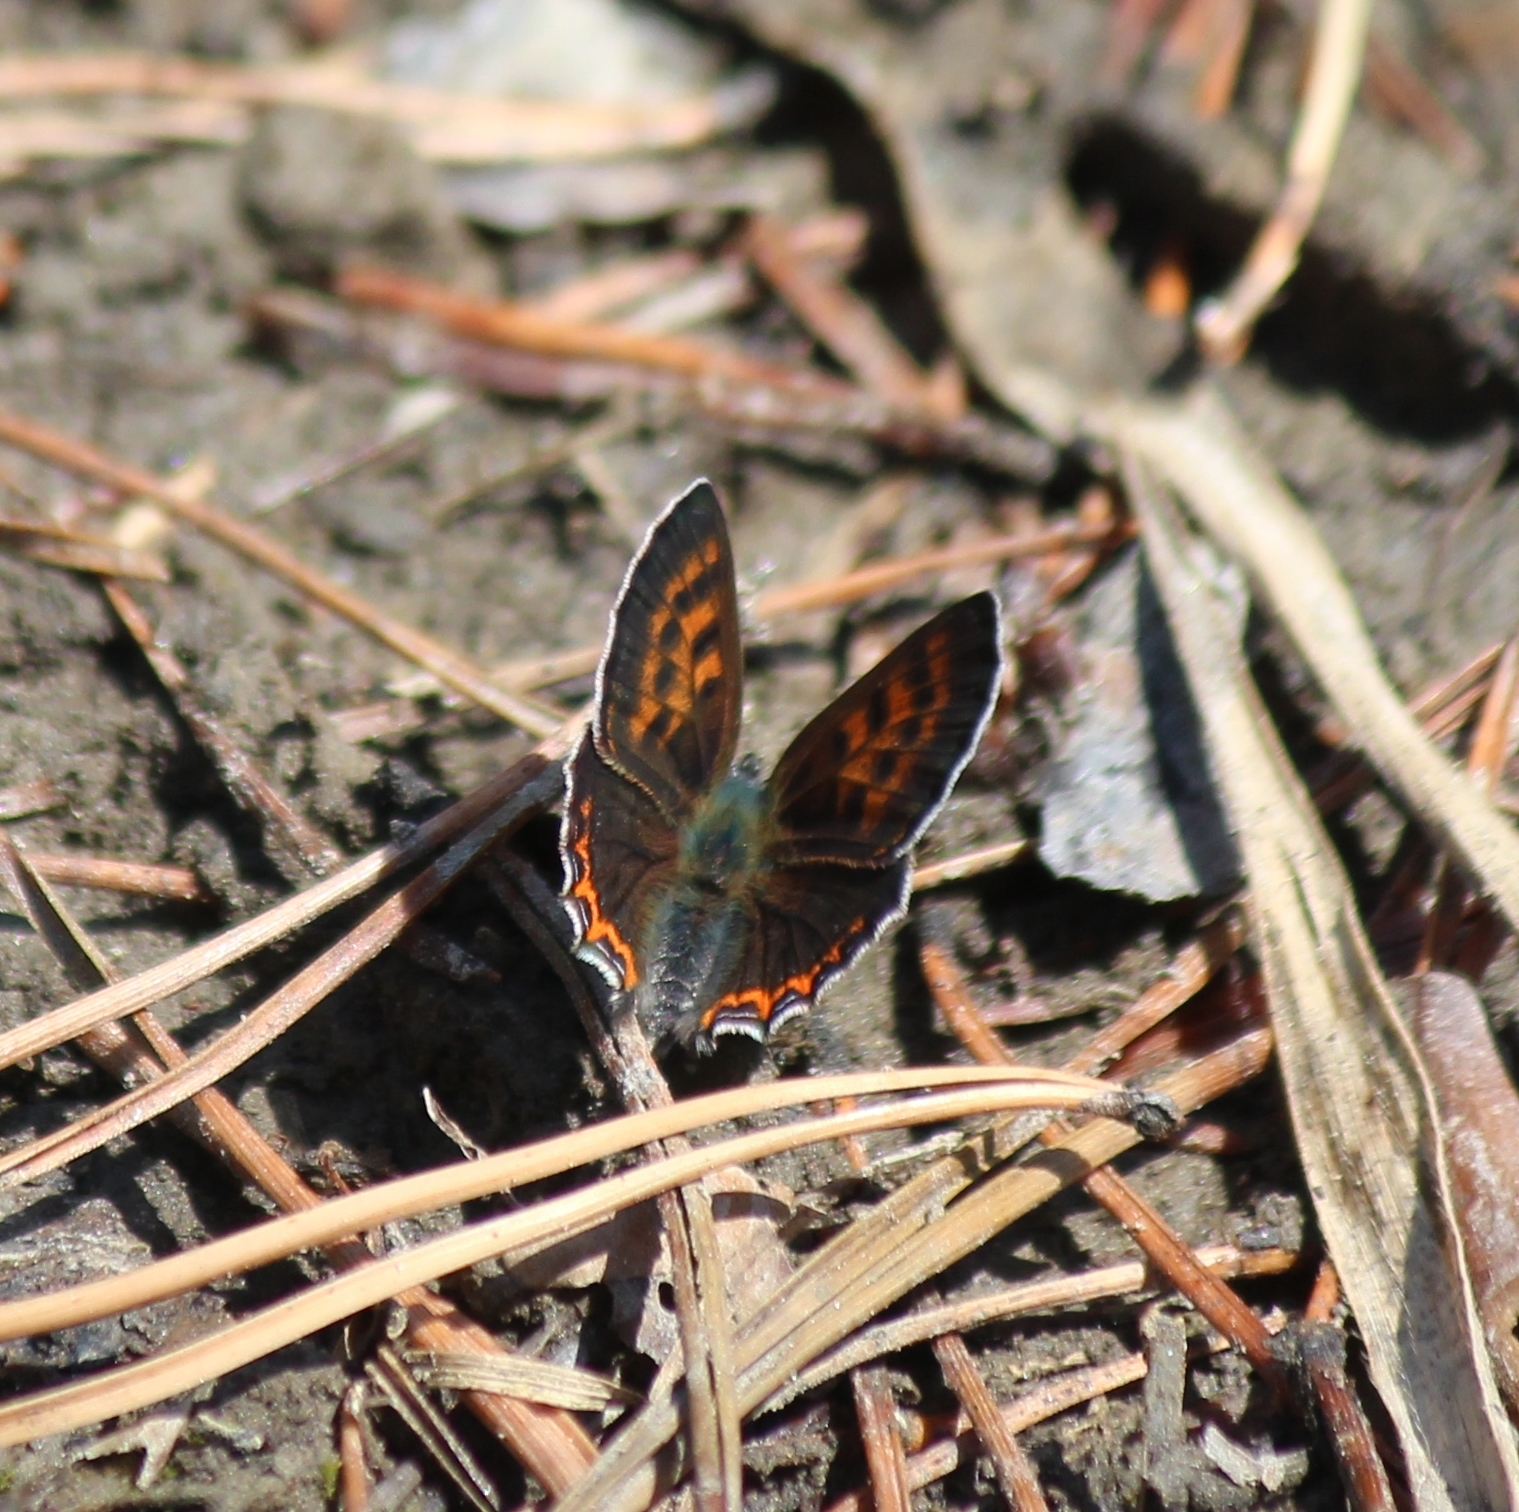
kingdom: Animalia
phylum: Arthropoda
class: Insecta
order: Lepidoptera
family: Lycaenidae
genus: Helleia
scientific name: Helleia helle
